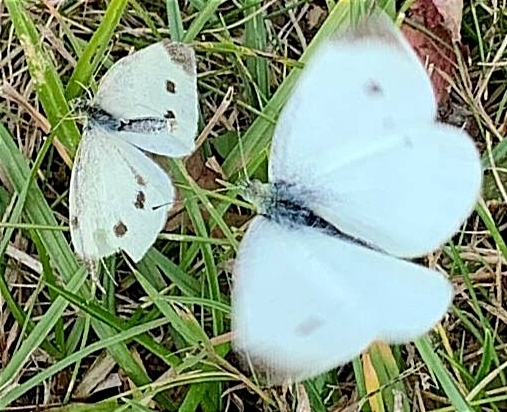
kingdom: Animalia
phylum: Arthropoda
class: Insecta
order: Lepidoptera
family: Pieridae
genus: Pieris
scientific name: Pieris rapae
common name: Small white
